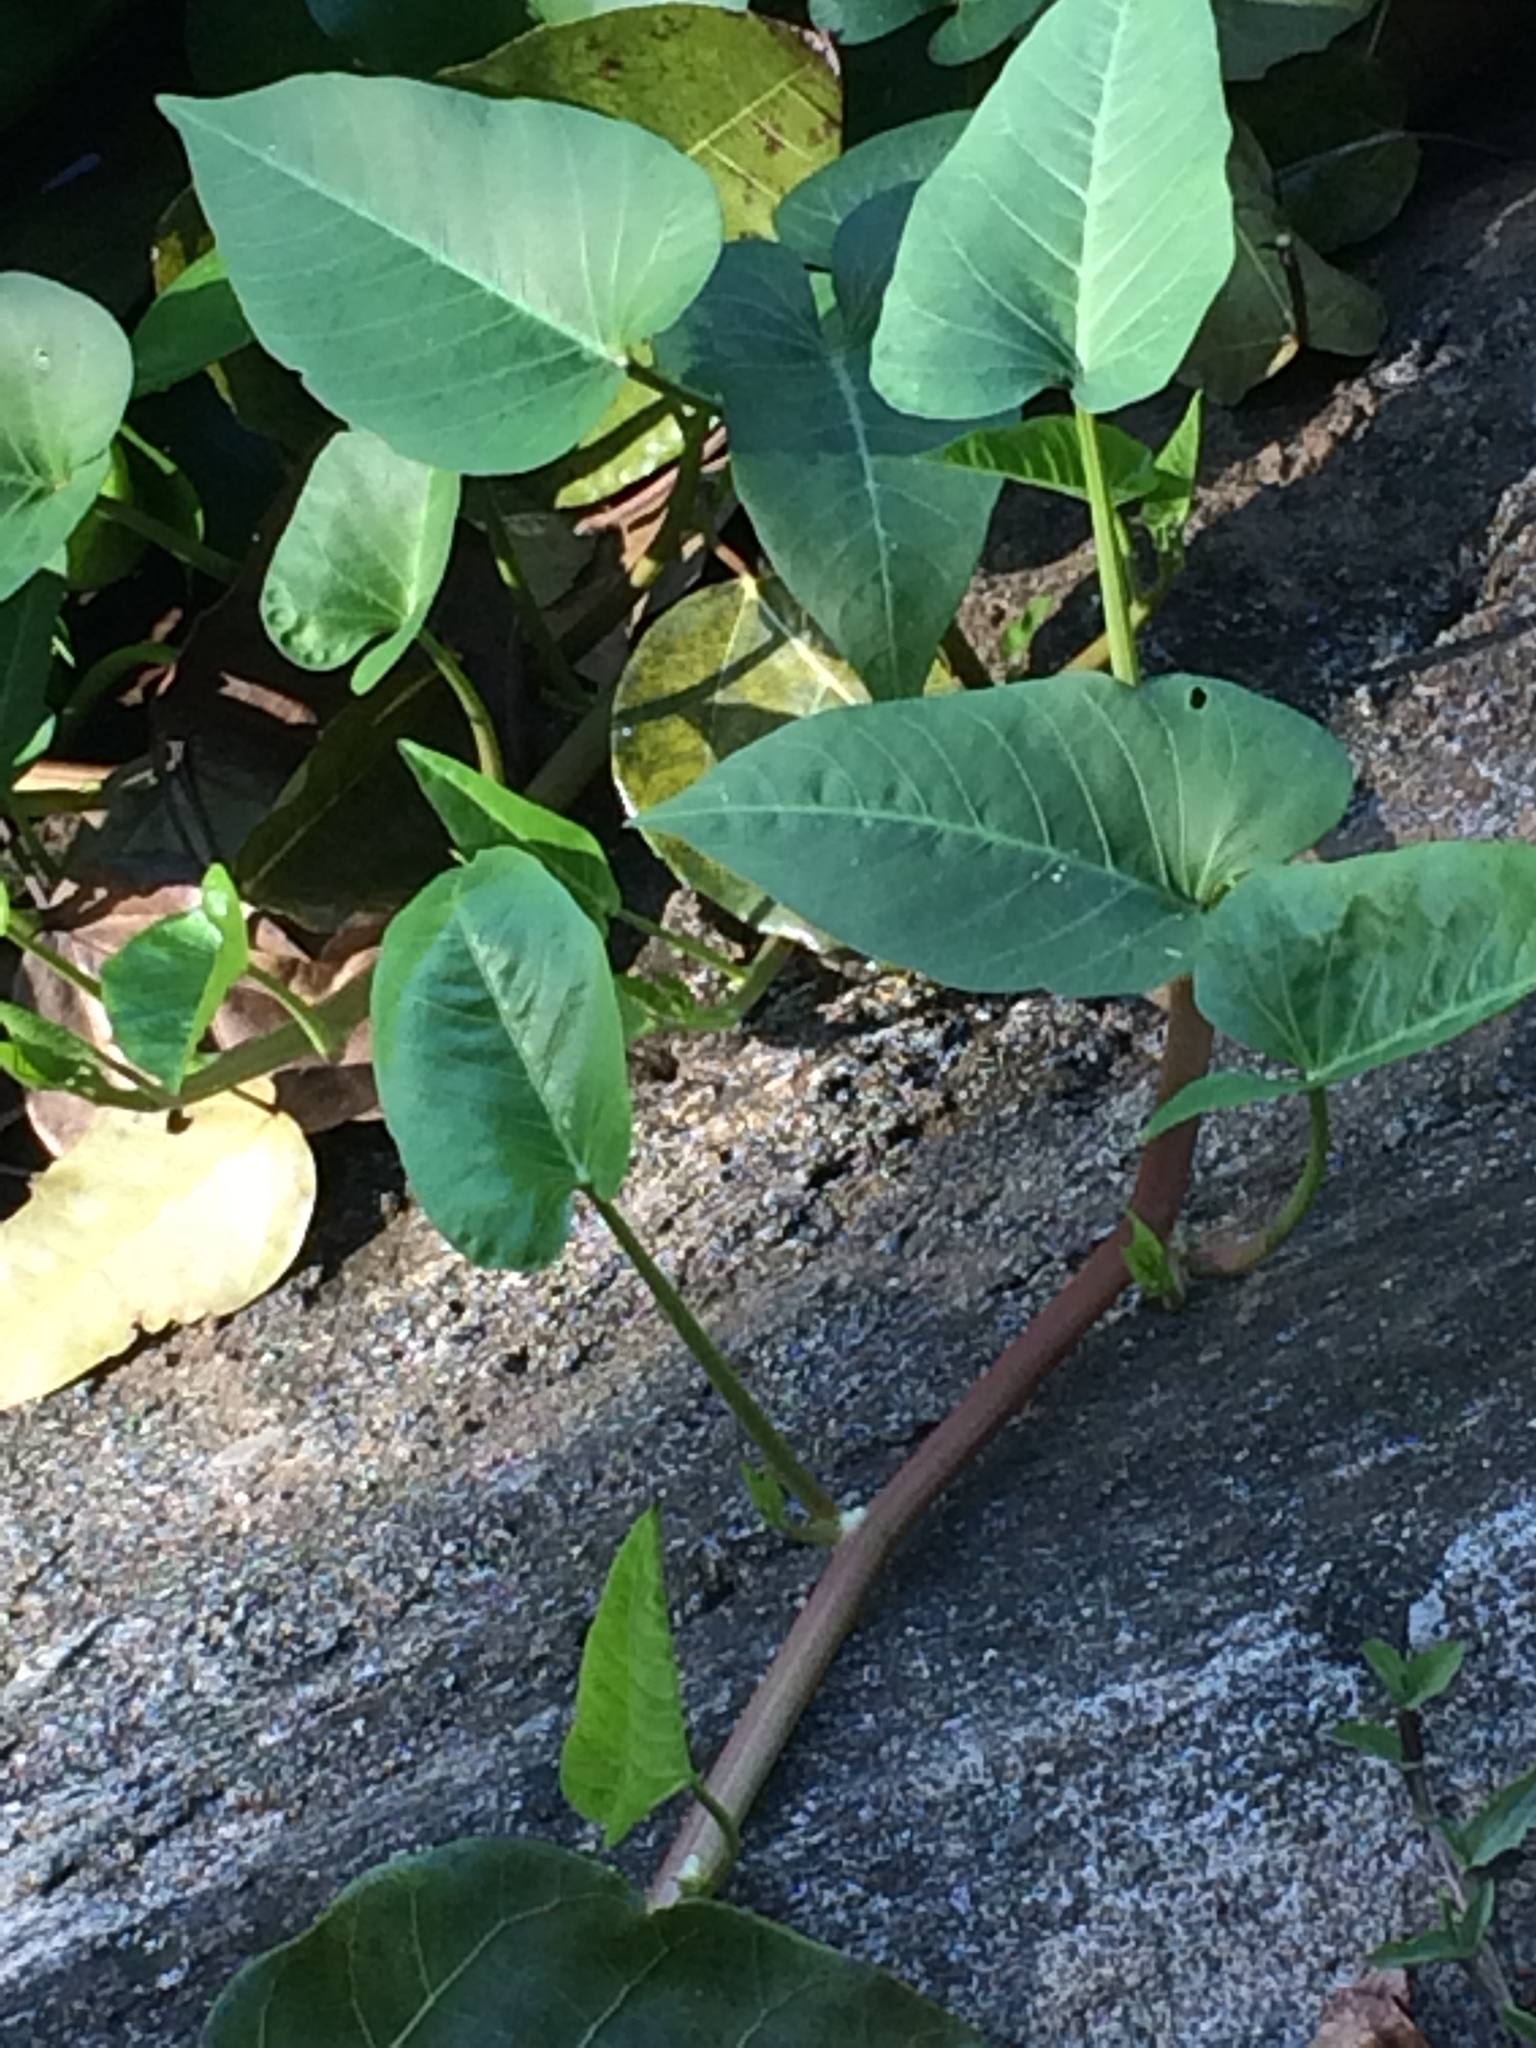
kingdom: Plantae
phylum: Tracheophyta
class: Magnoliopsida
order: Solanales
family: Convolvulaceae
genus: Ipomoea
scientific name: Ipomoea aquatica
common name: Swamp morning-glory
